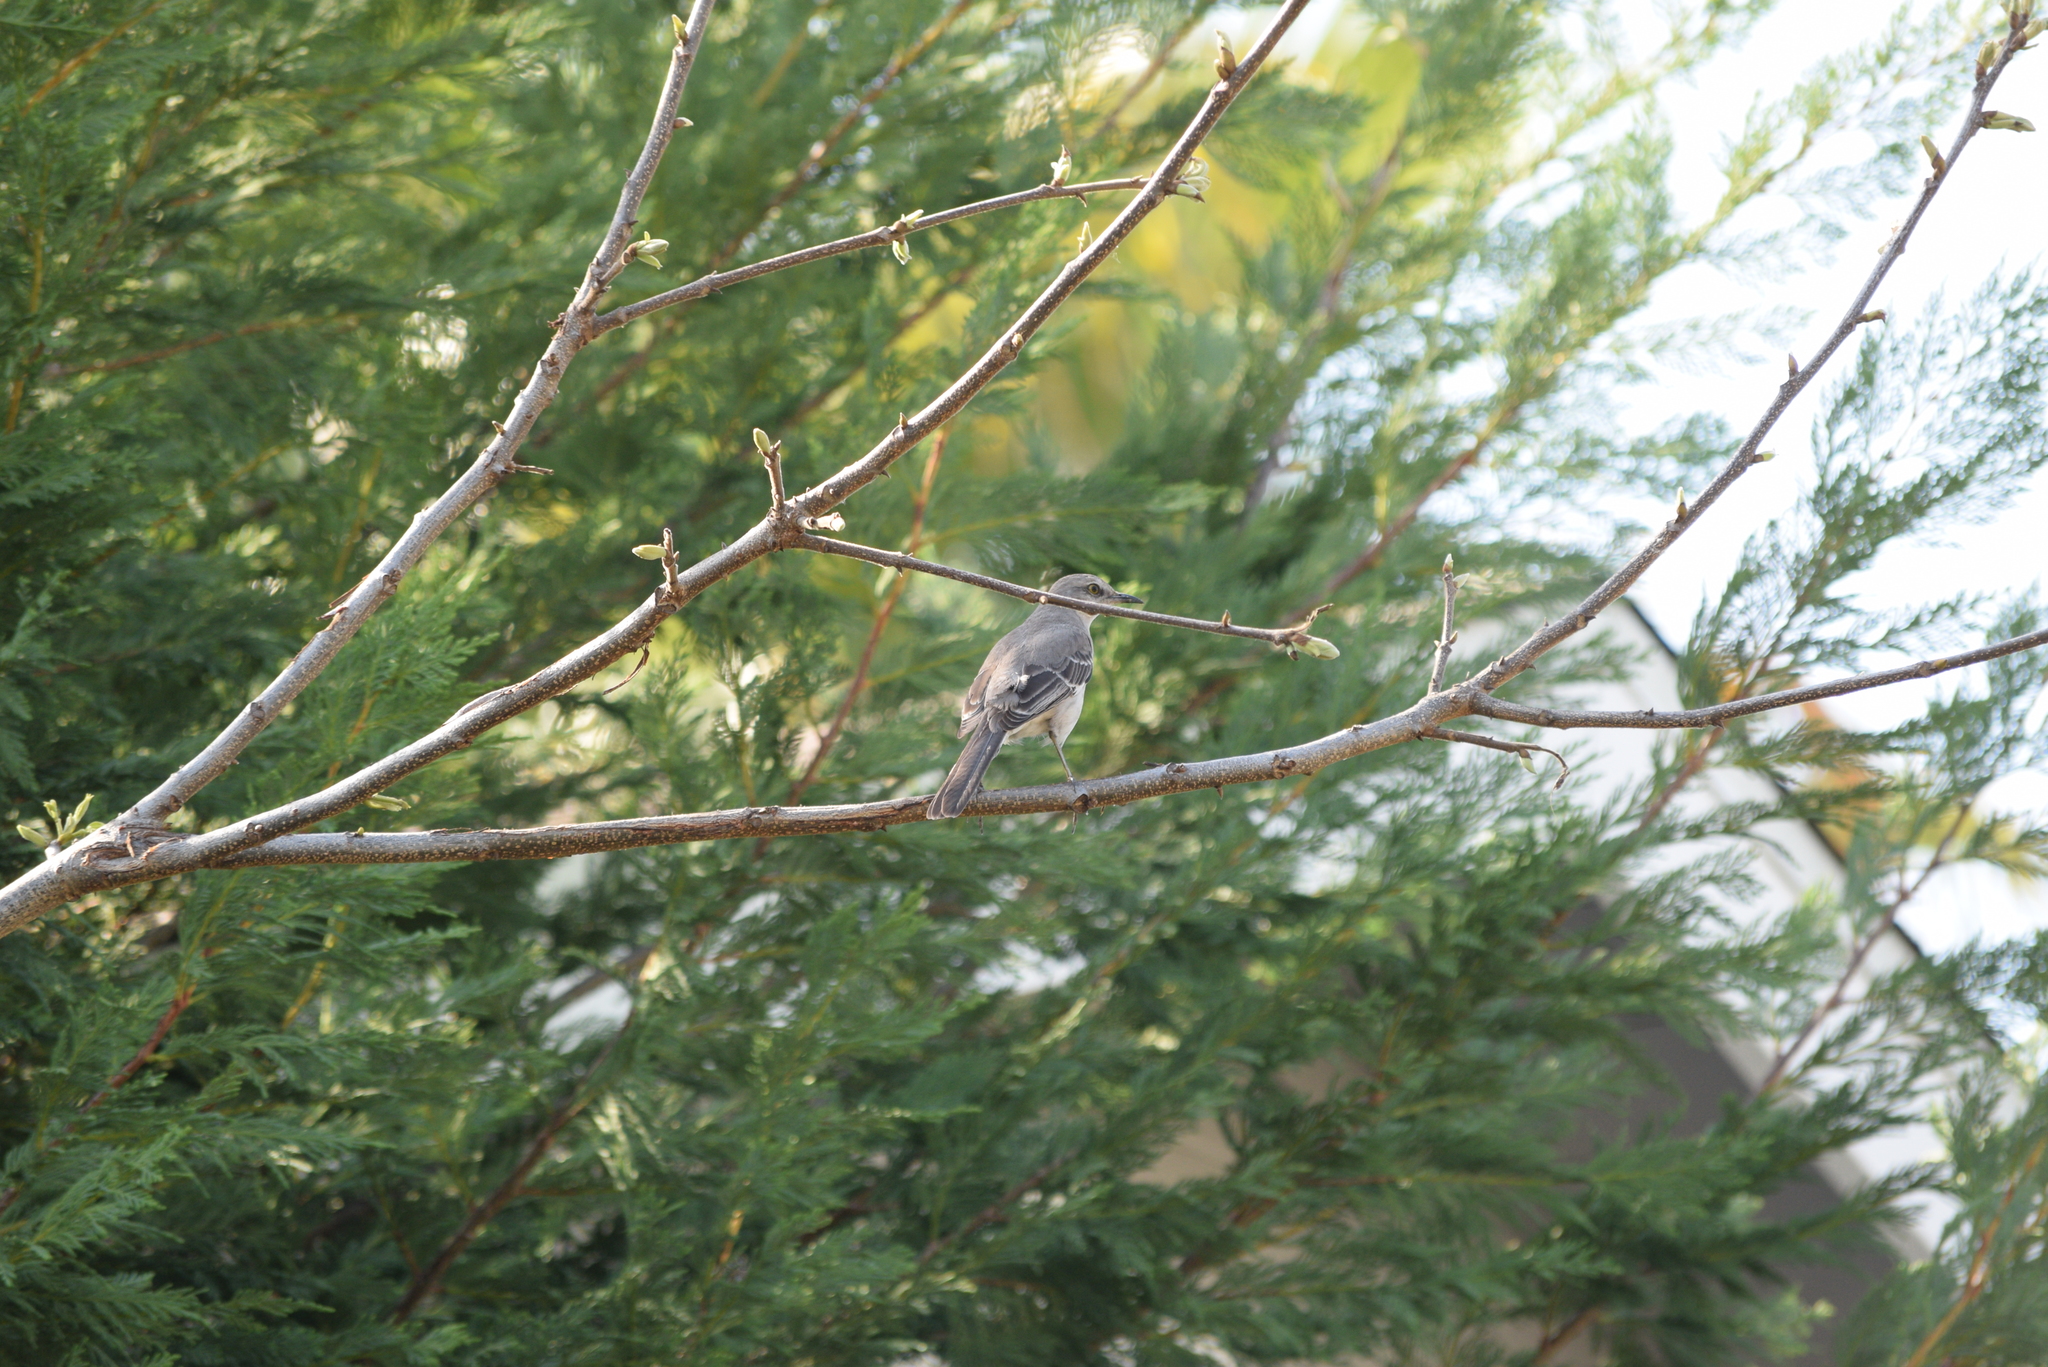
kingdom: Animalia
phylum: Chordata
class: Aves
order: Passeriformes
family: Mimidae
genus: Mimus
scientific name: Mimus polyglottos
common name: Northern mockingbird
